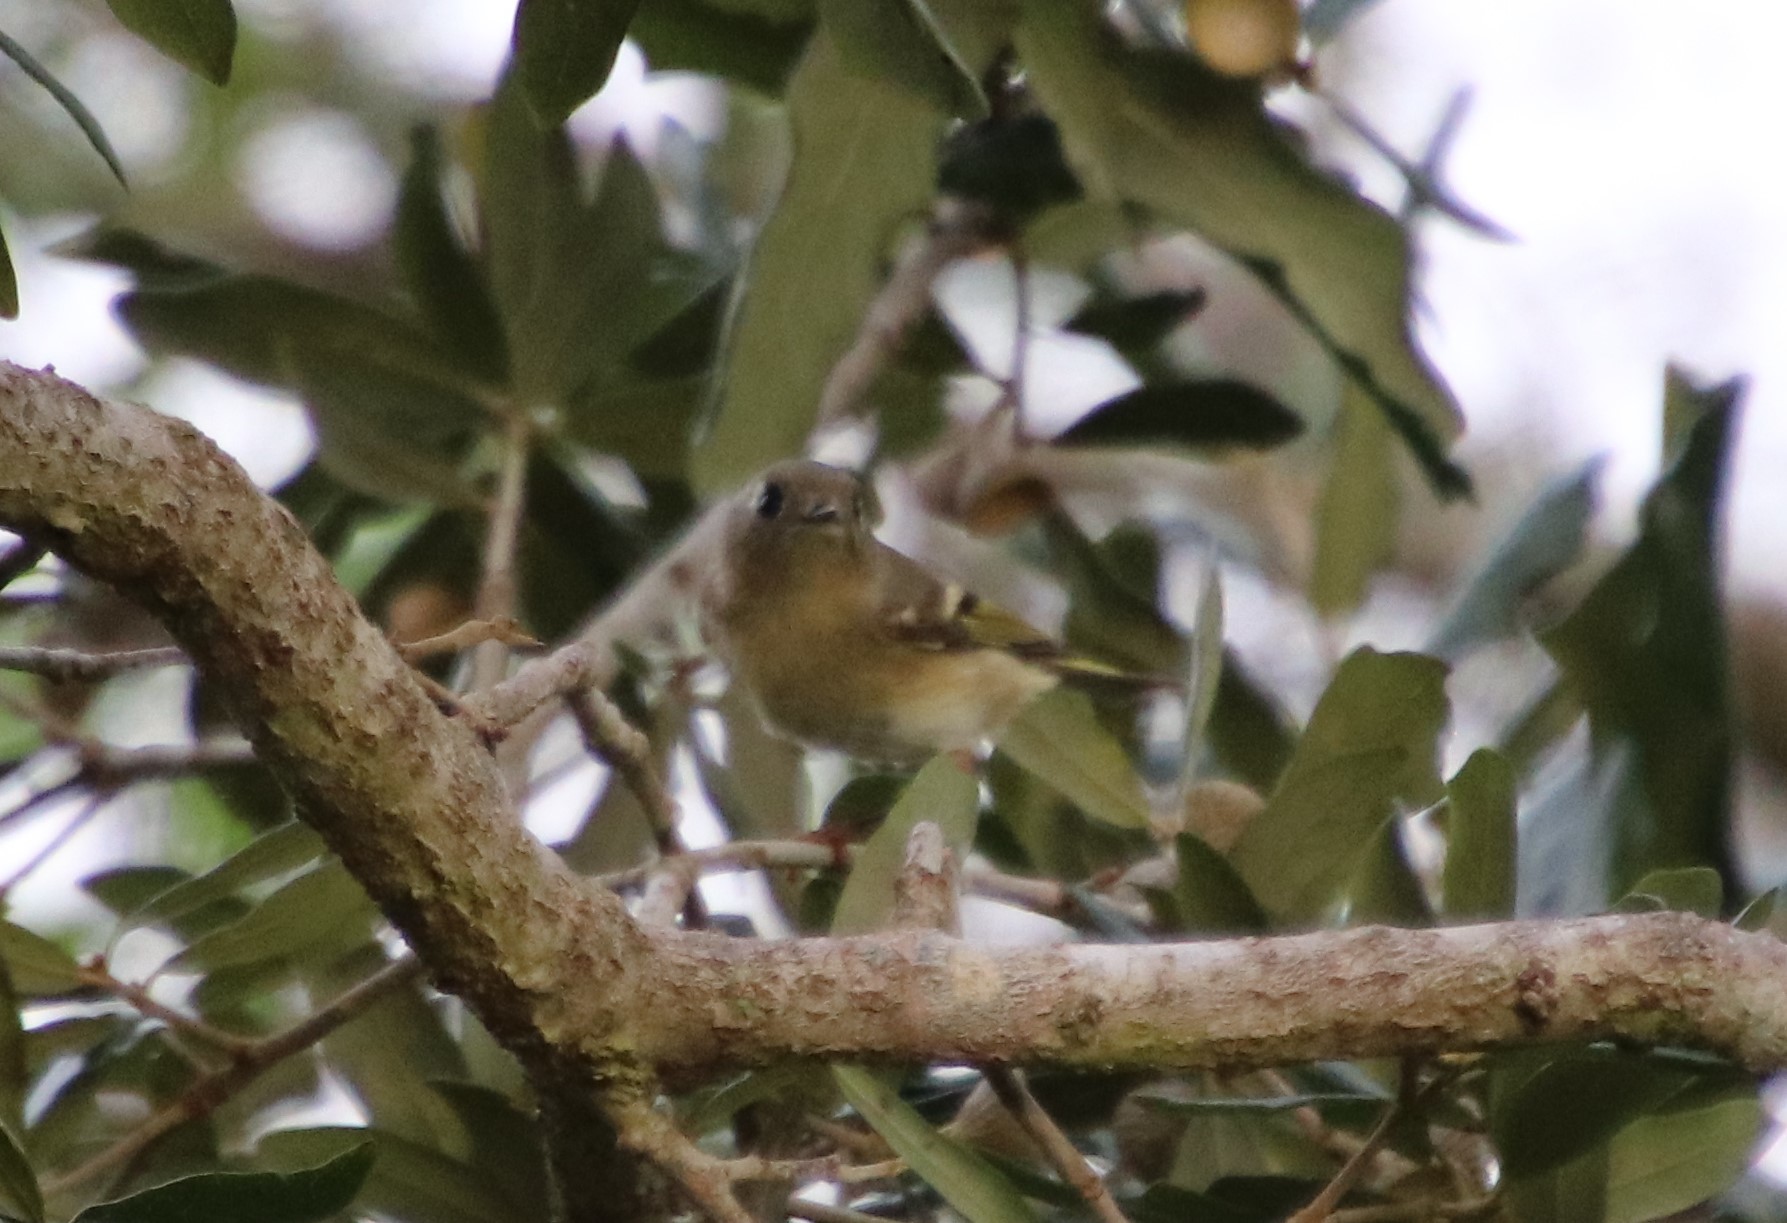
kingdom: Animalia
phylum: Chordata
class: Aves
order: Passeriformes
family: Regulidae
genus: Regulus
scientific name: Regulus calendula
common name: Ruby-crowned kinglet
